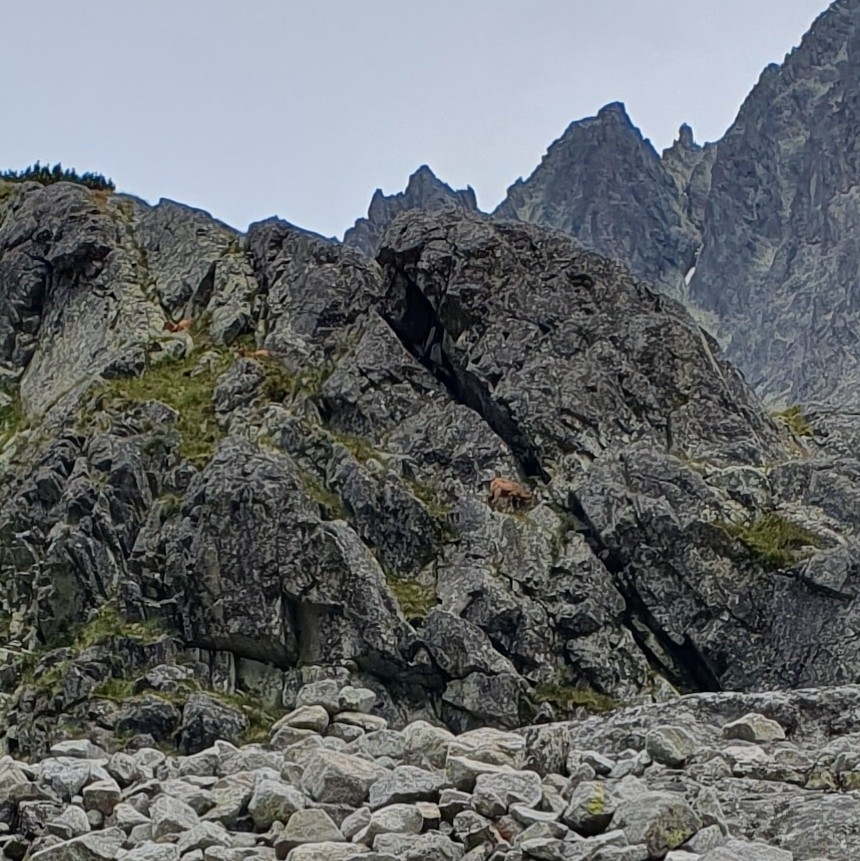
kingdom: Animalia
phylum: Chordata
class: Mammalia
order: Artiodactyla
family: Bovidae
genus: Rupicapra
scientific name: Rupicapra rupicapra
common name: Chamois
